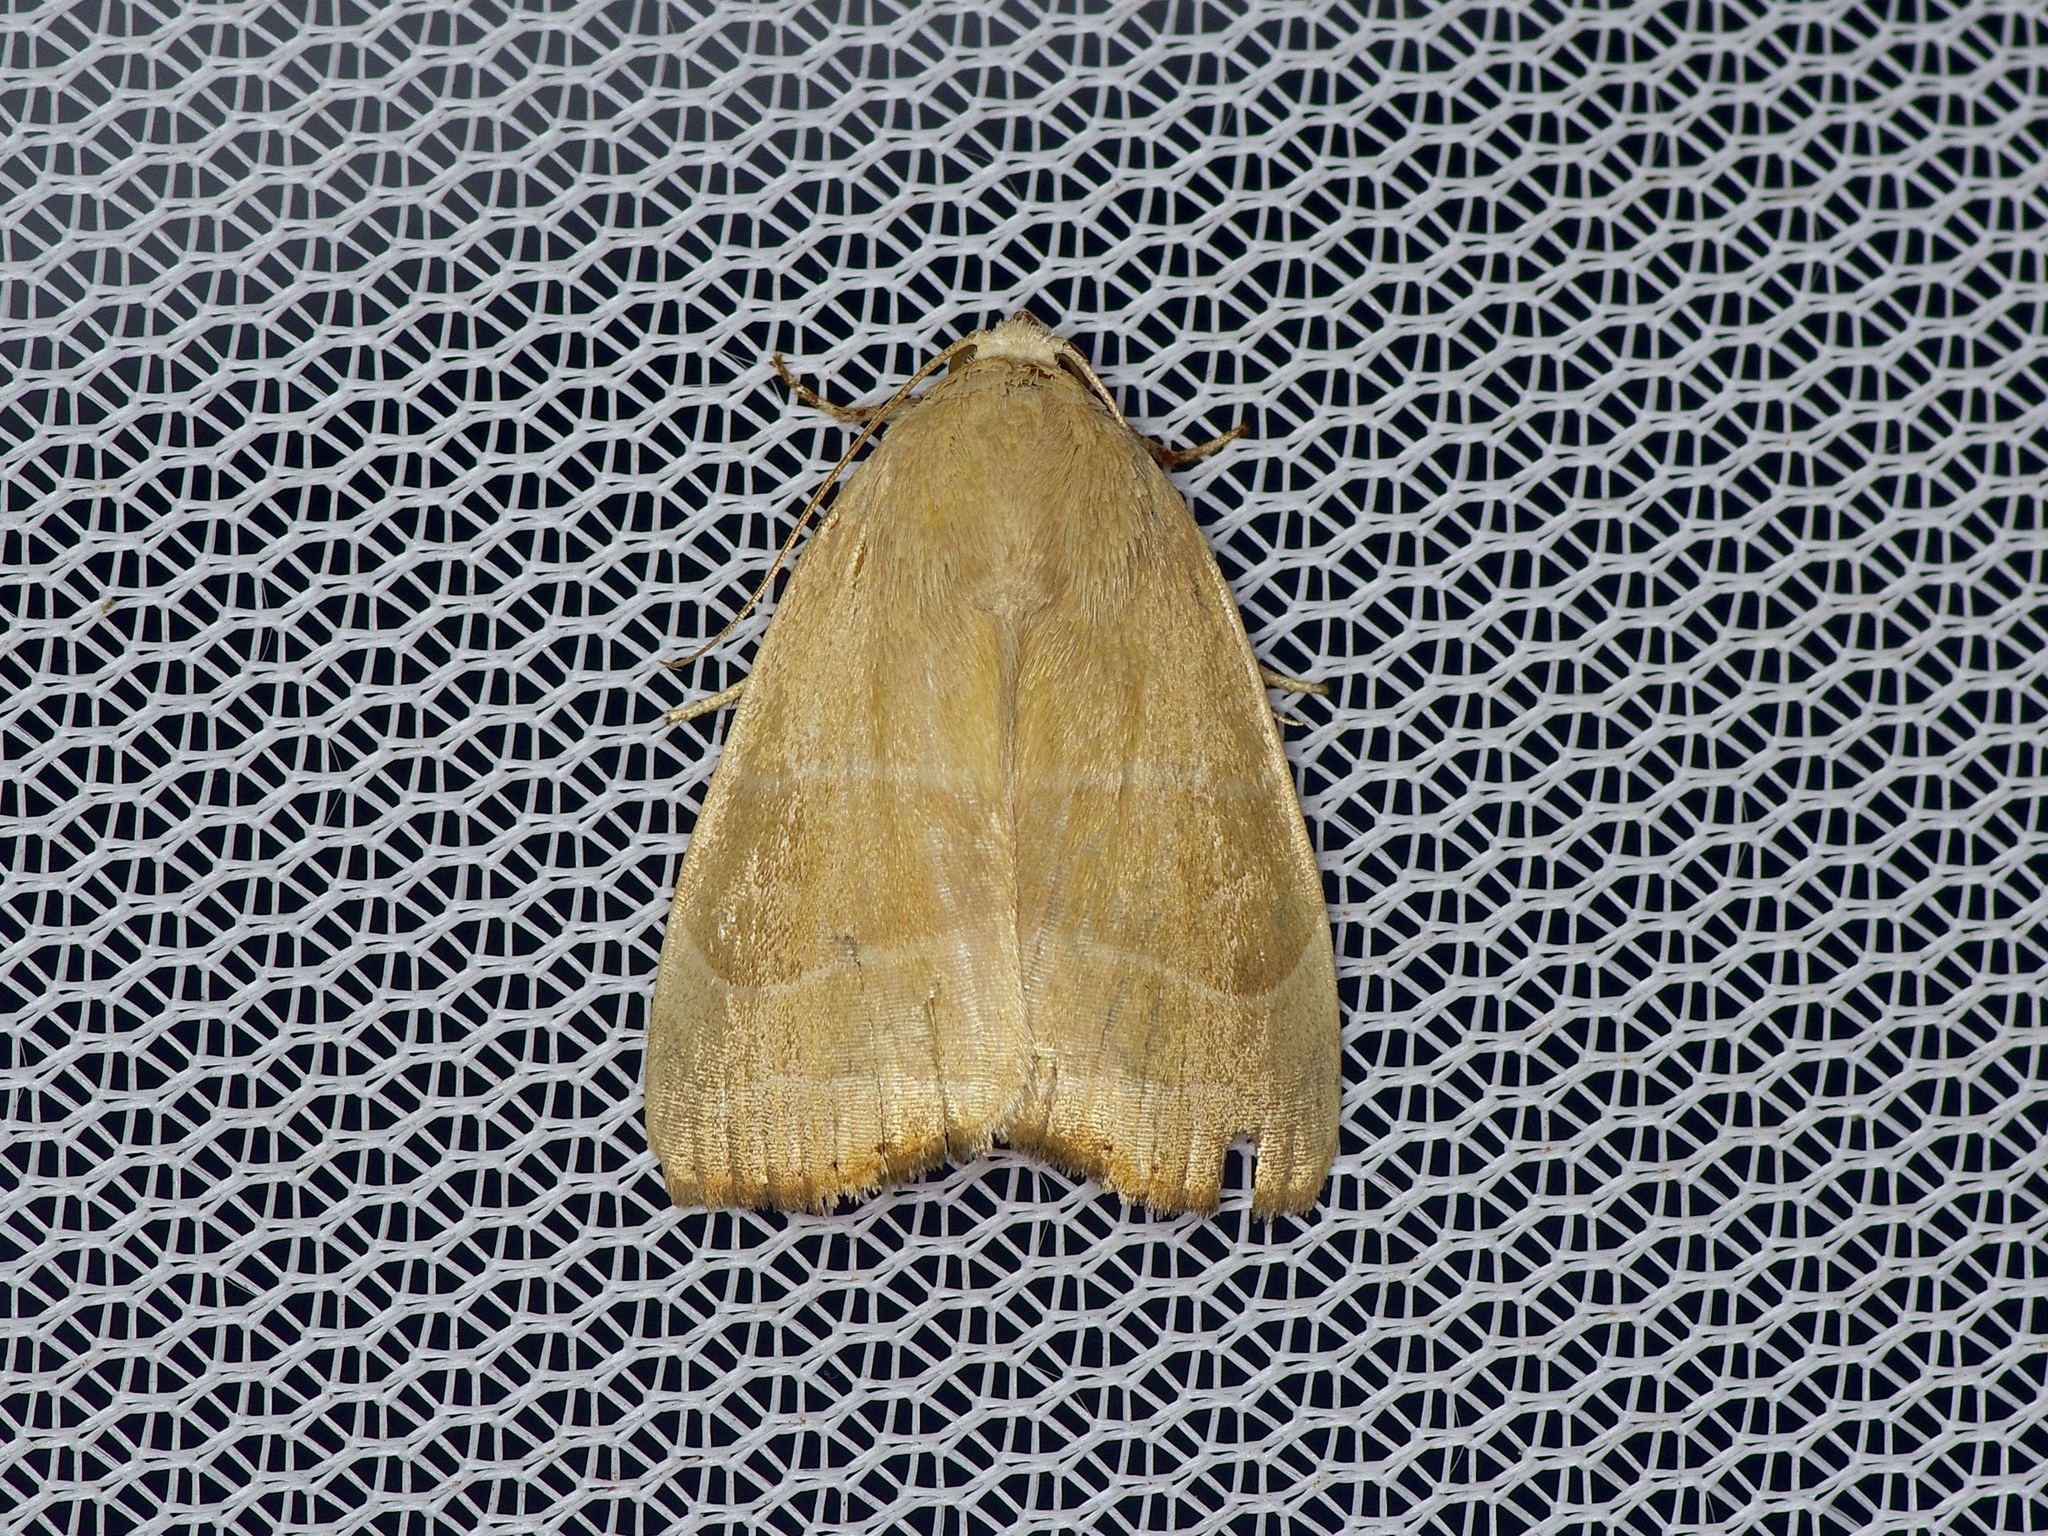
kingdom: Animalia
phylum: Arthropoda
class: Insecta
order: Lepidoptera
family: Noctuidae
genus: Bagisara
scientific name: Bagisara rectifascia
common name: Straight lined mallow moth
